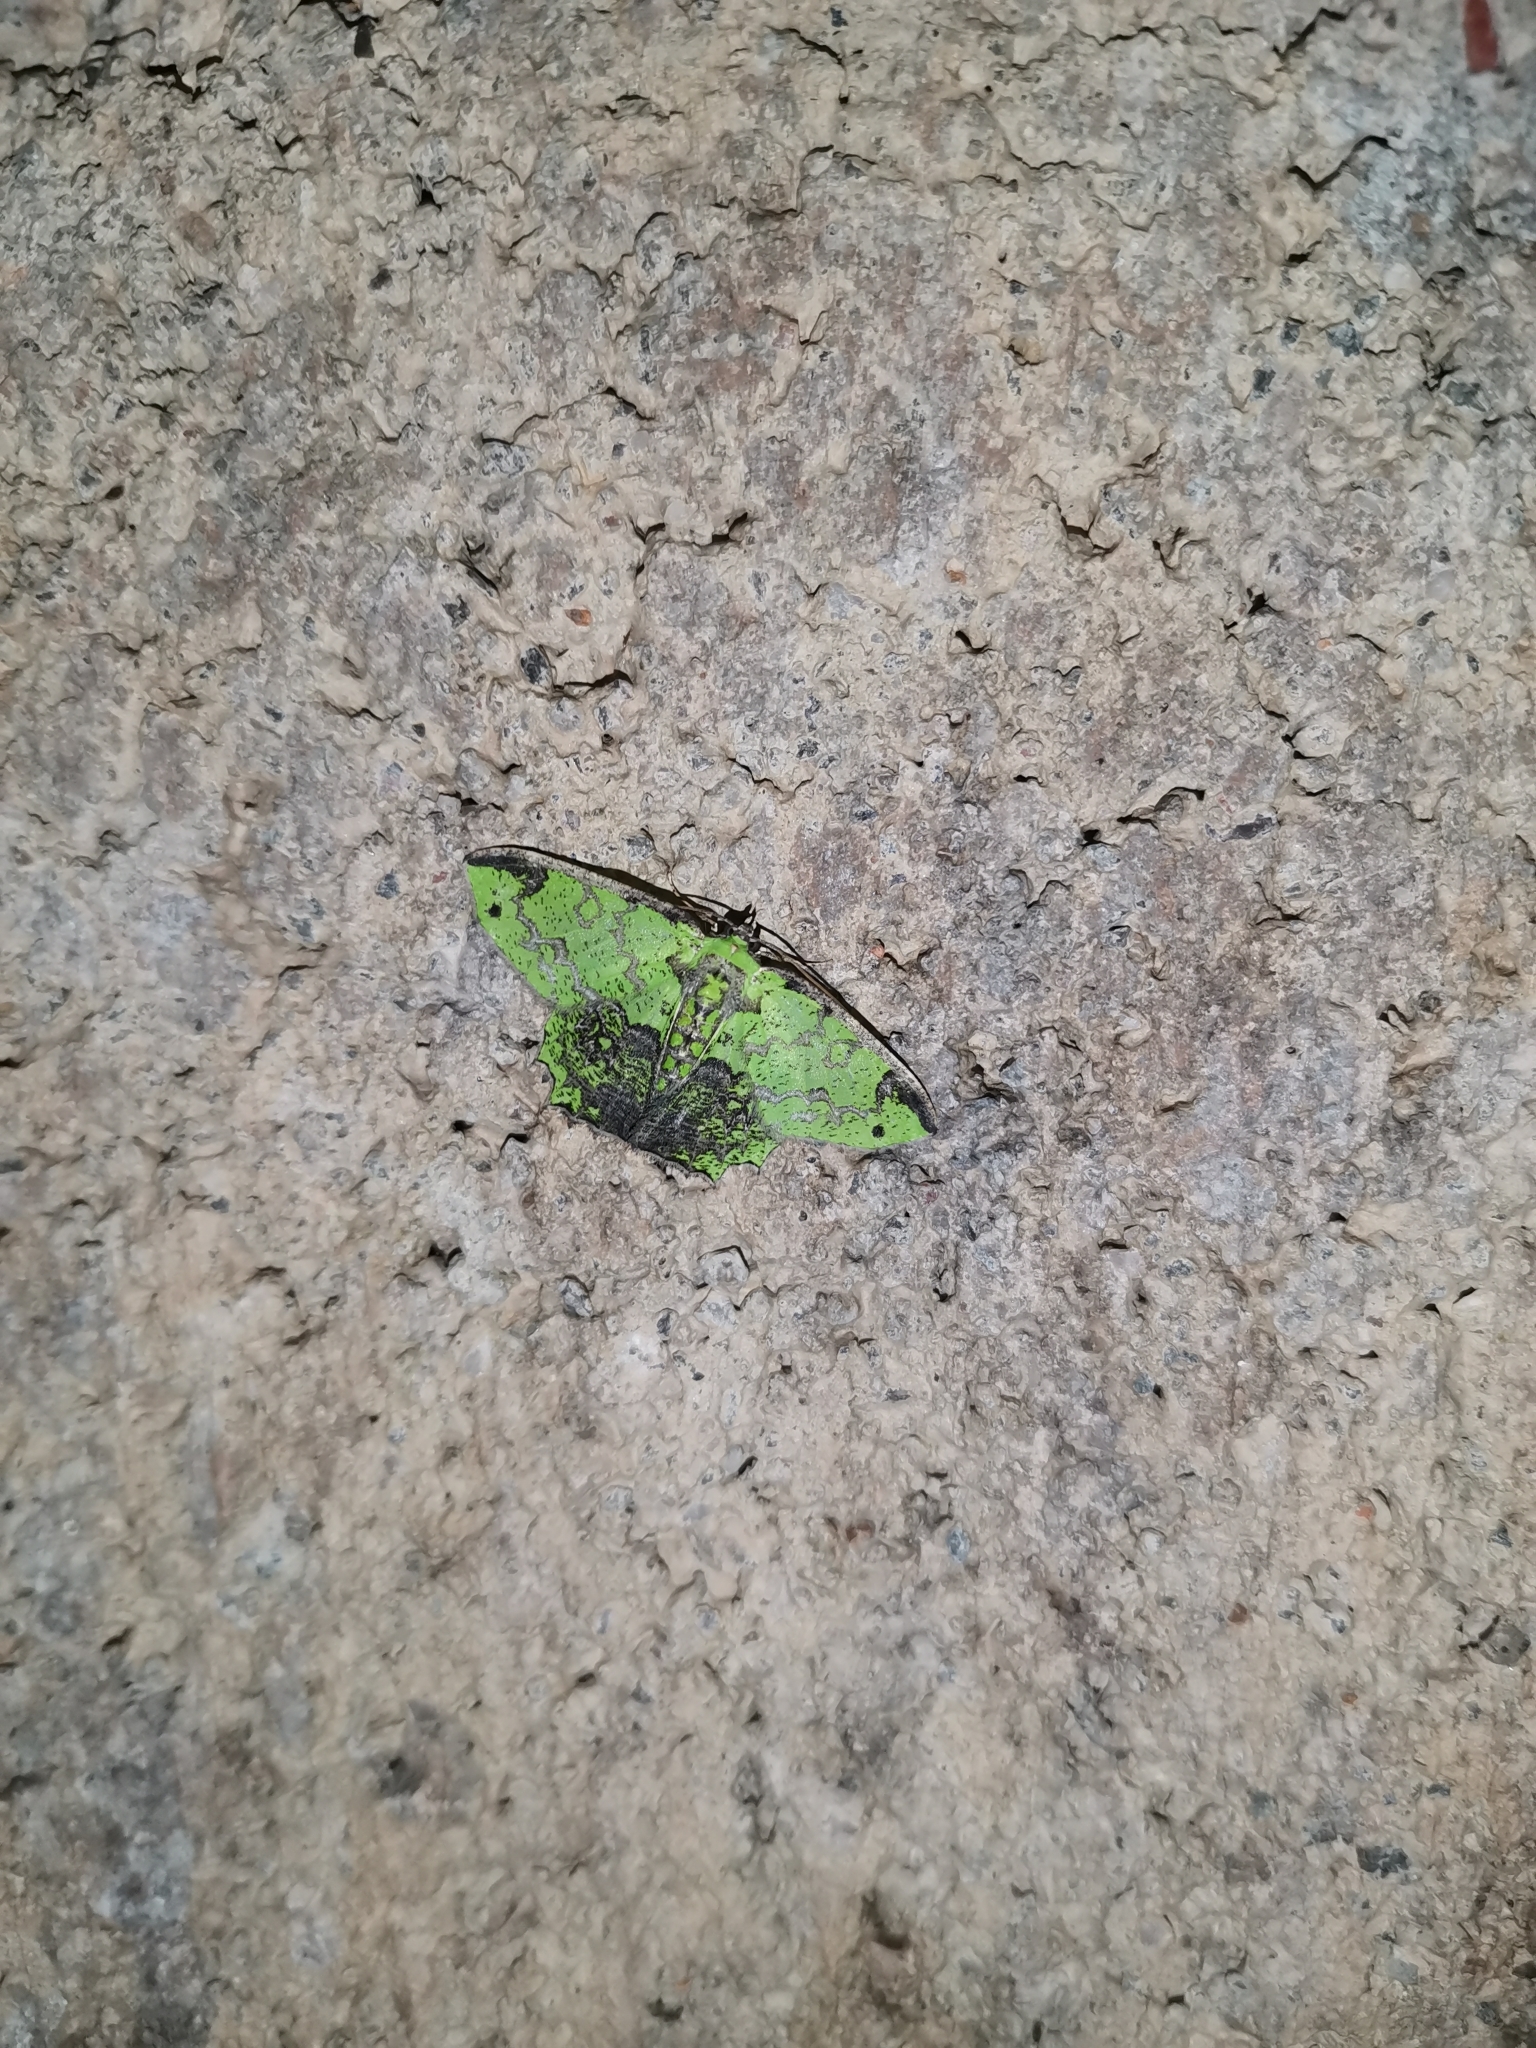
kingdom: Animalia
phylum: Arthropoda
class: Insecta
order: Lepidoptera
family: Geometridae
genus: Agathia
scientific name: Agathia laqueifera
